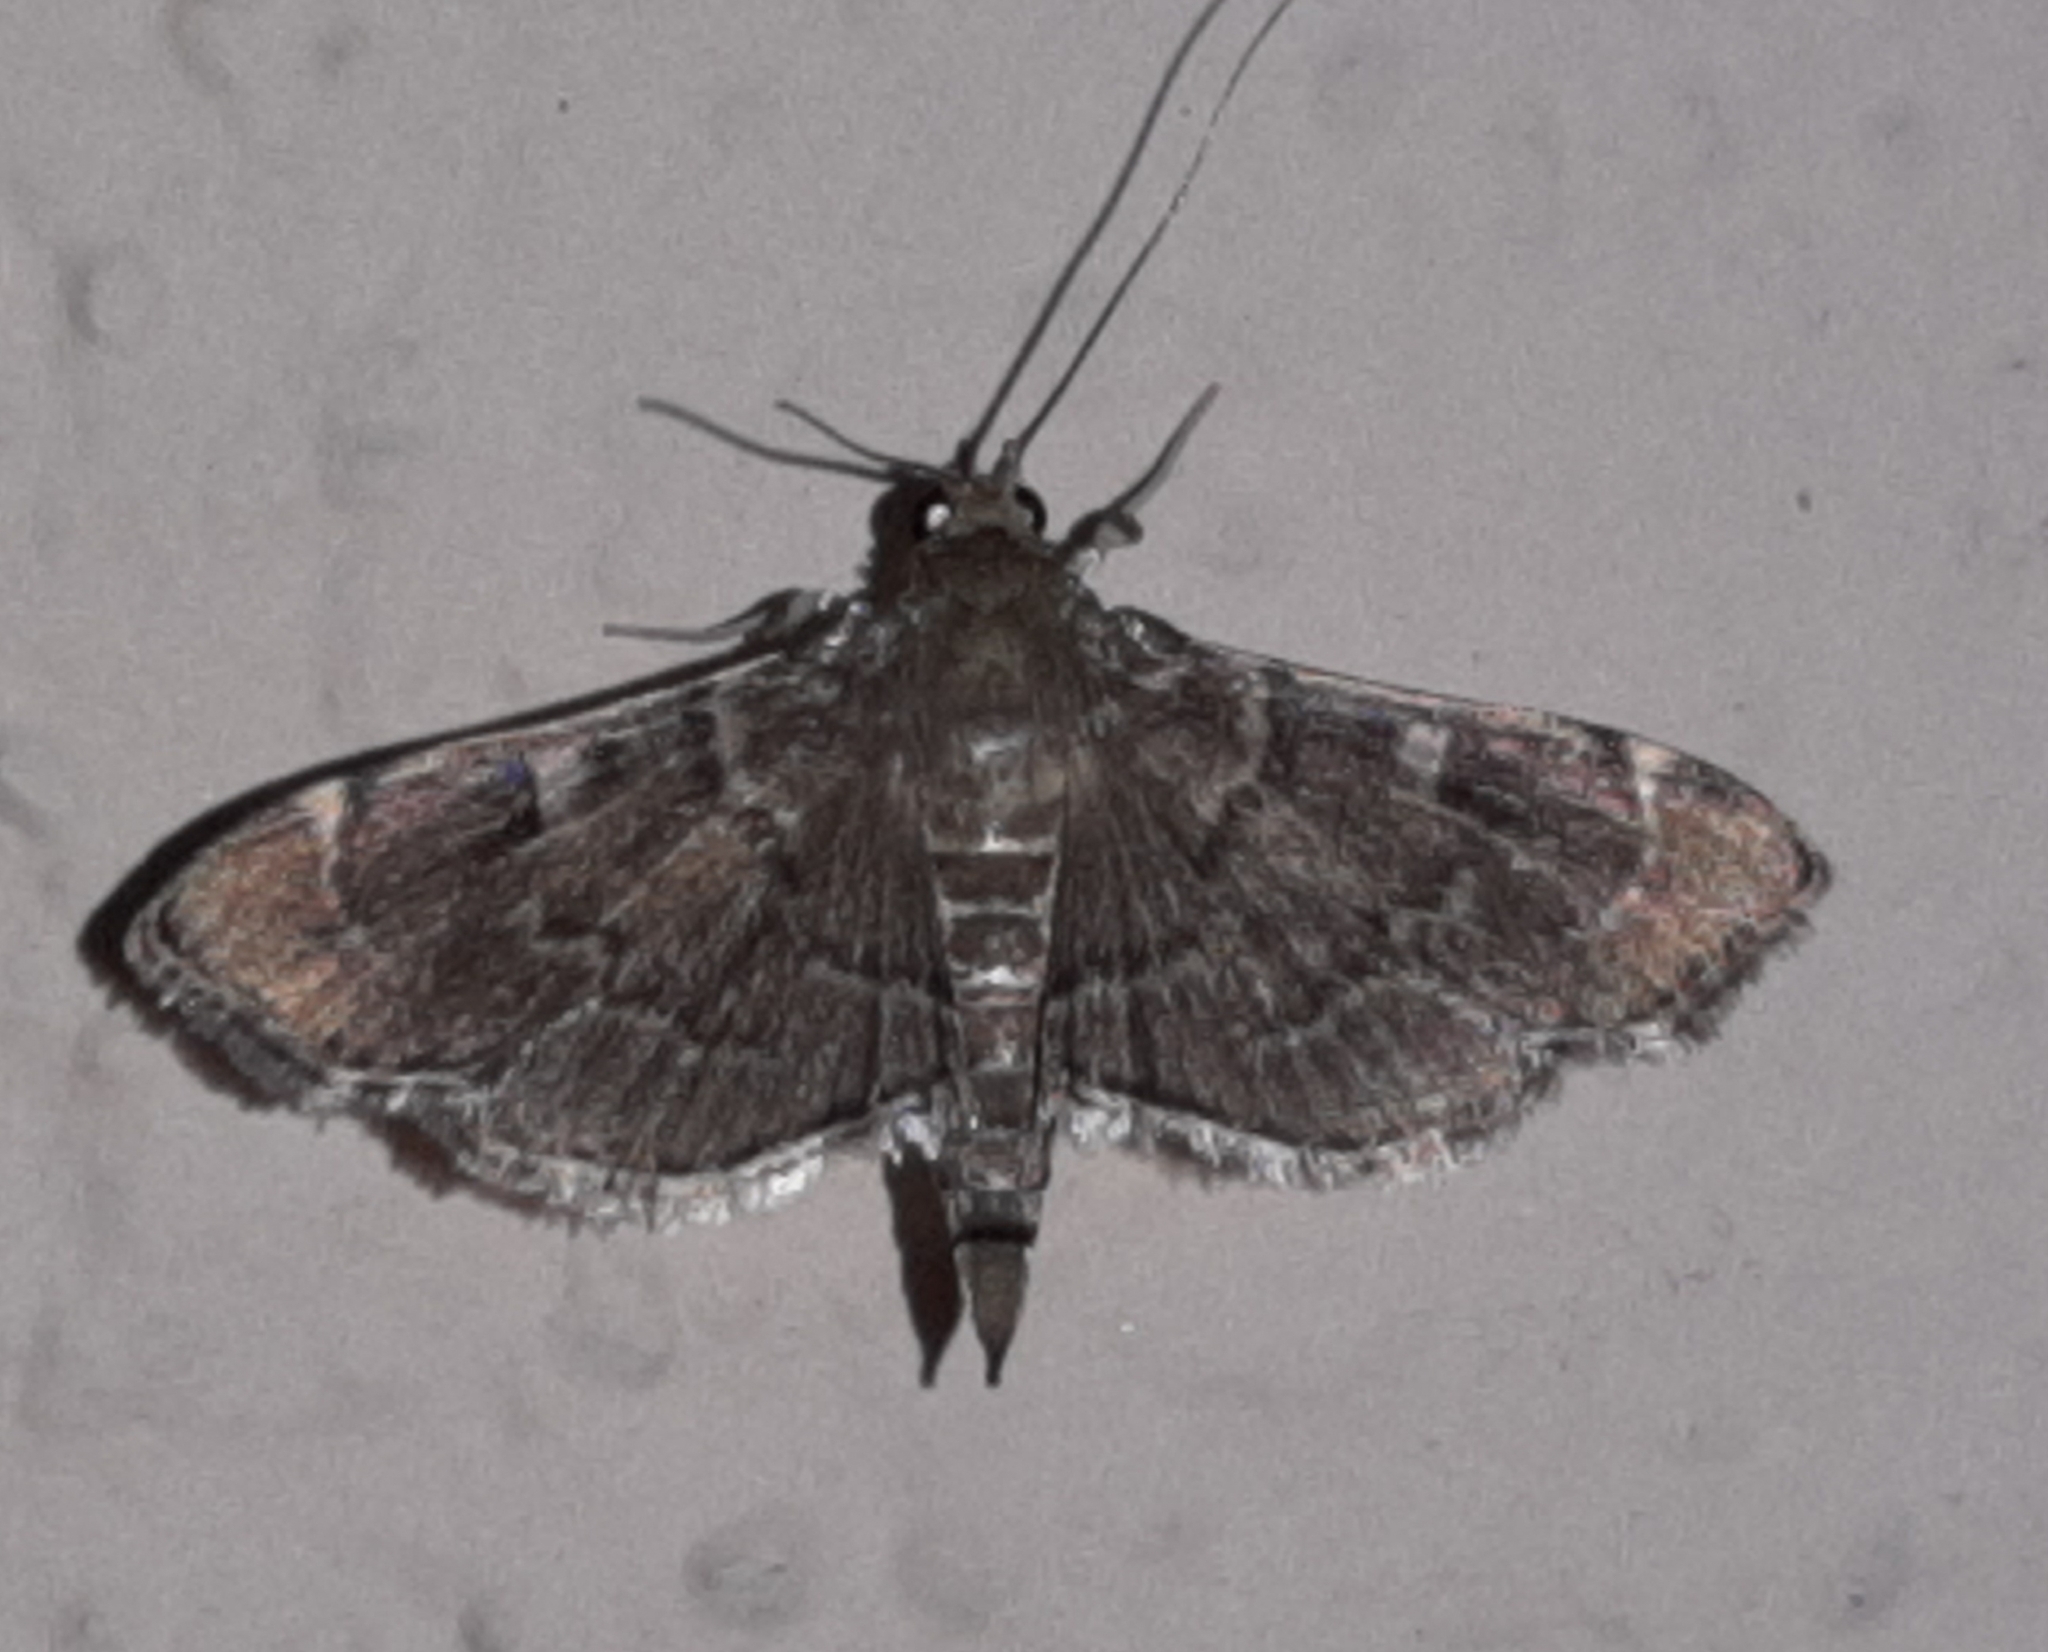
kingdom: Animalia
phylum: Arthropoda
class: Insecta
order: Lepidoptera
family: Crambidae
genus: Cryptobotys
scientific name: Cryptobotys zoilusalis
